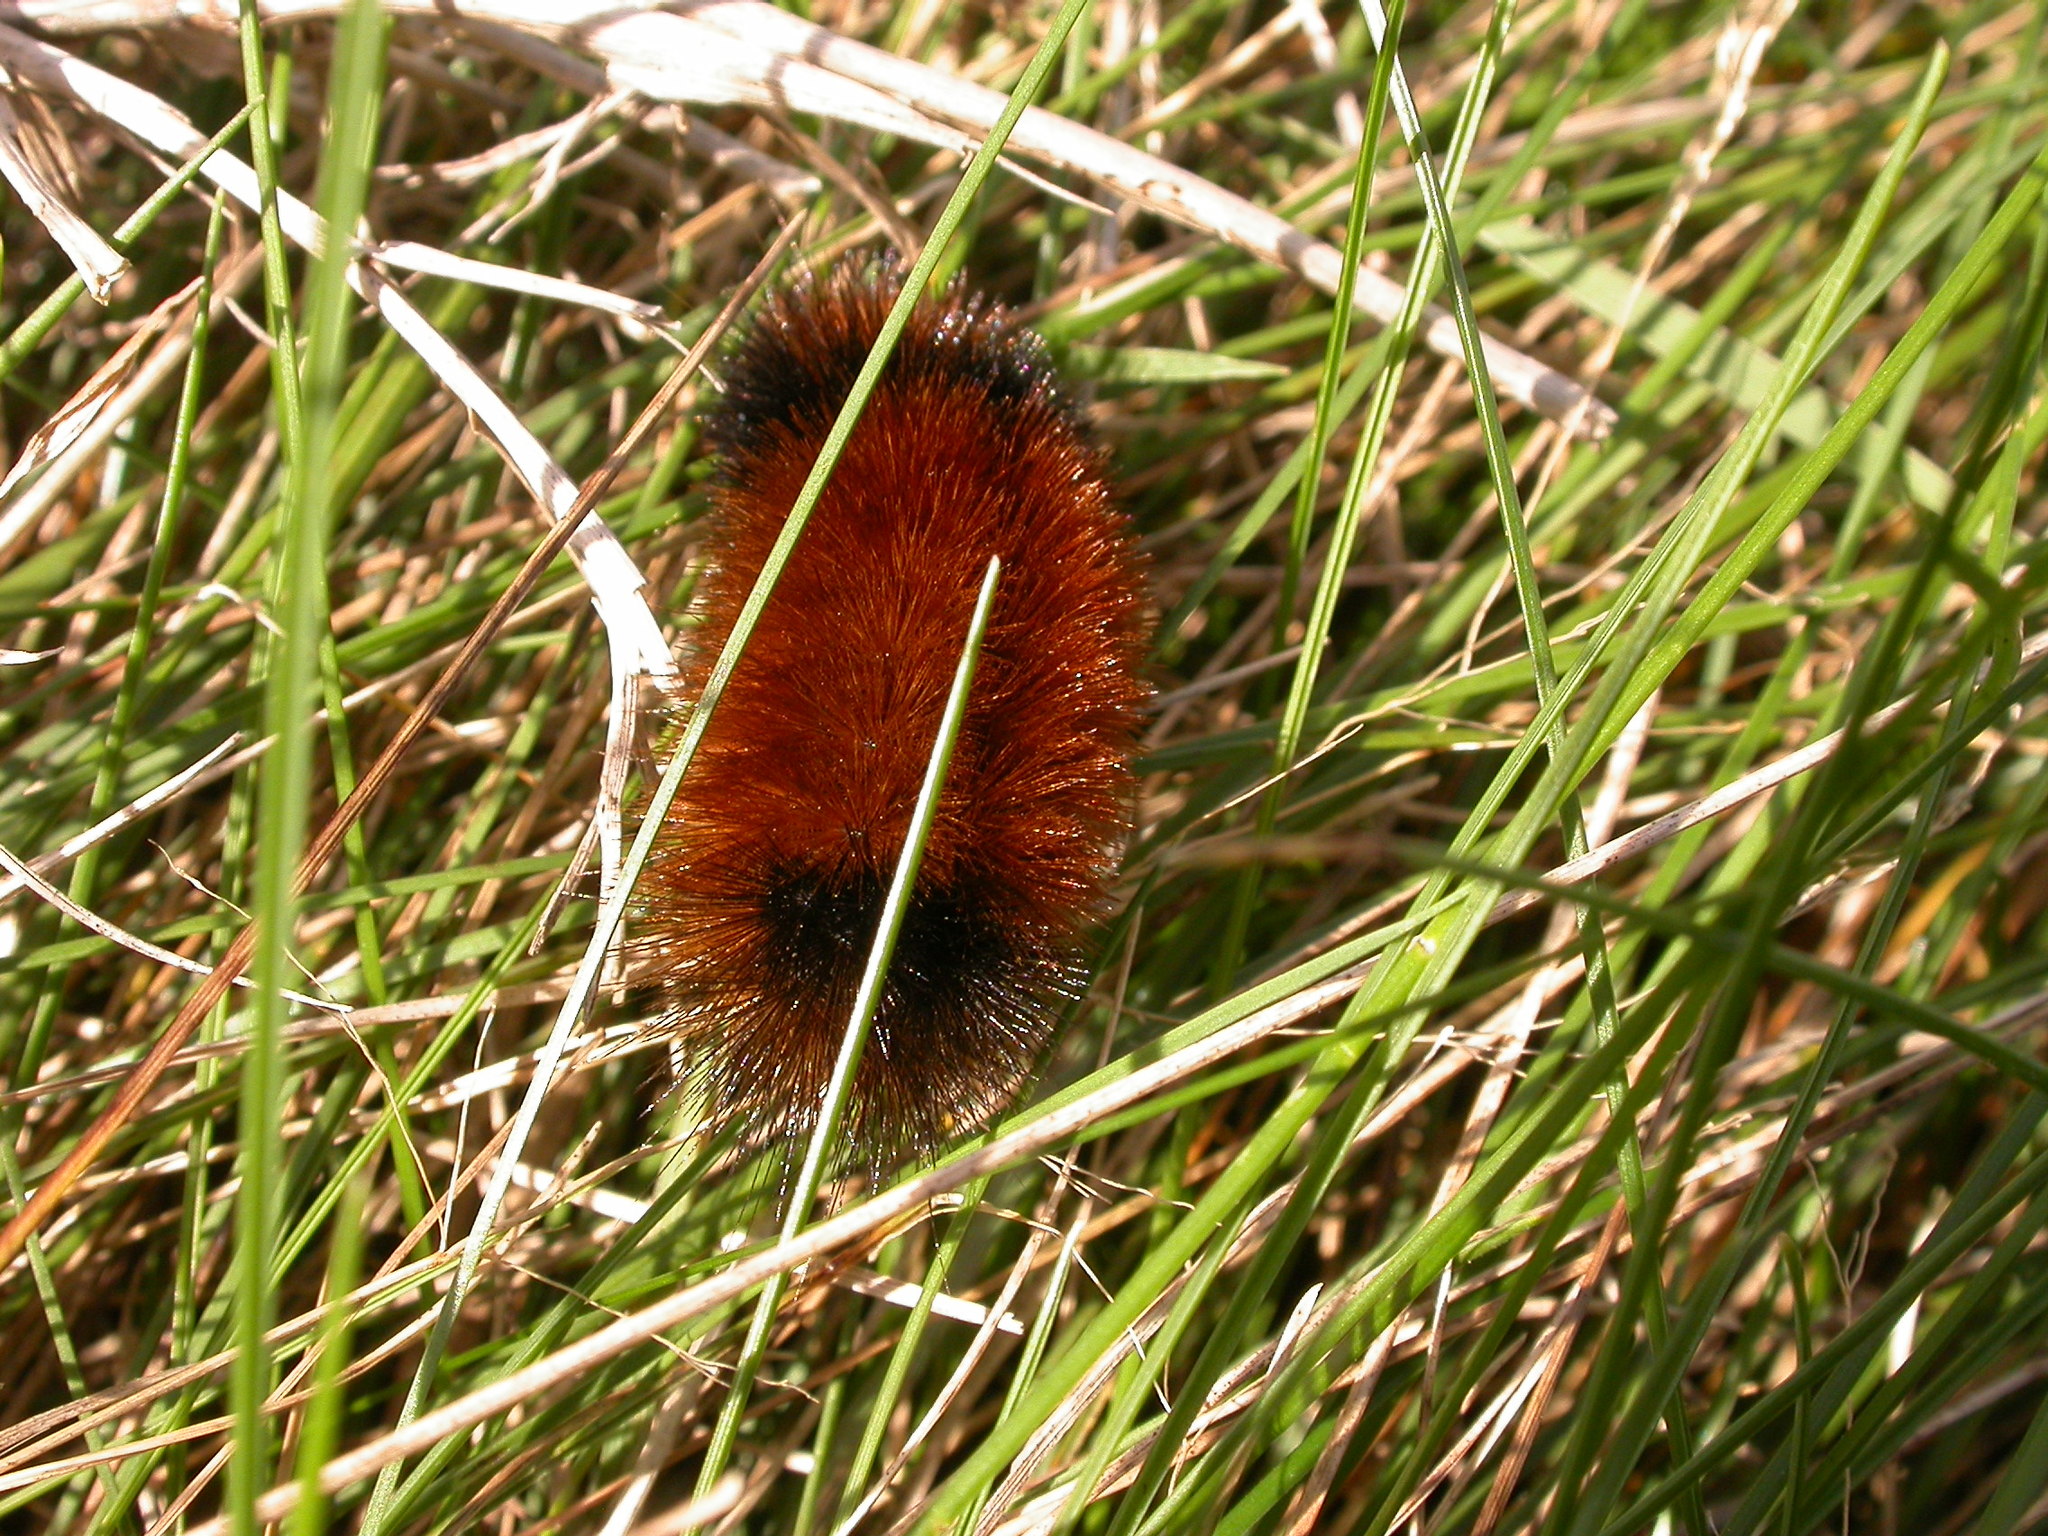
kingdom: Animalia
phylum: Arthropoda
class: Insecta
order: Lepidoptera
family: Erebidae
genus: Pyrrharctia
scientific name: Pyrrharctia isabella
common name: Isabella tiger moth
